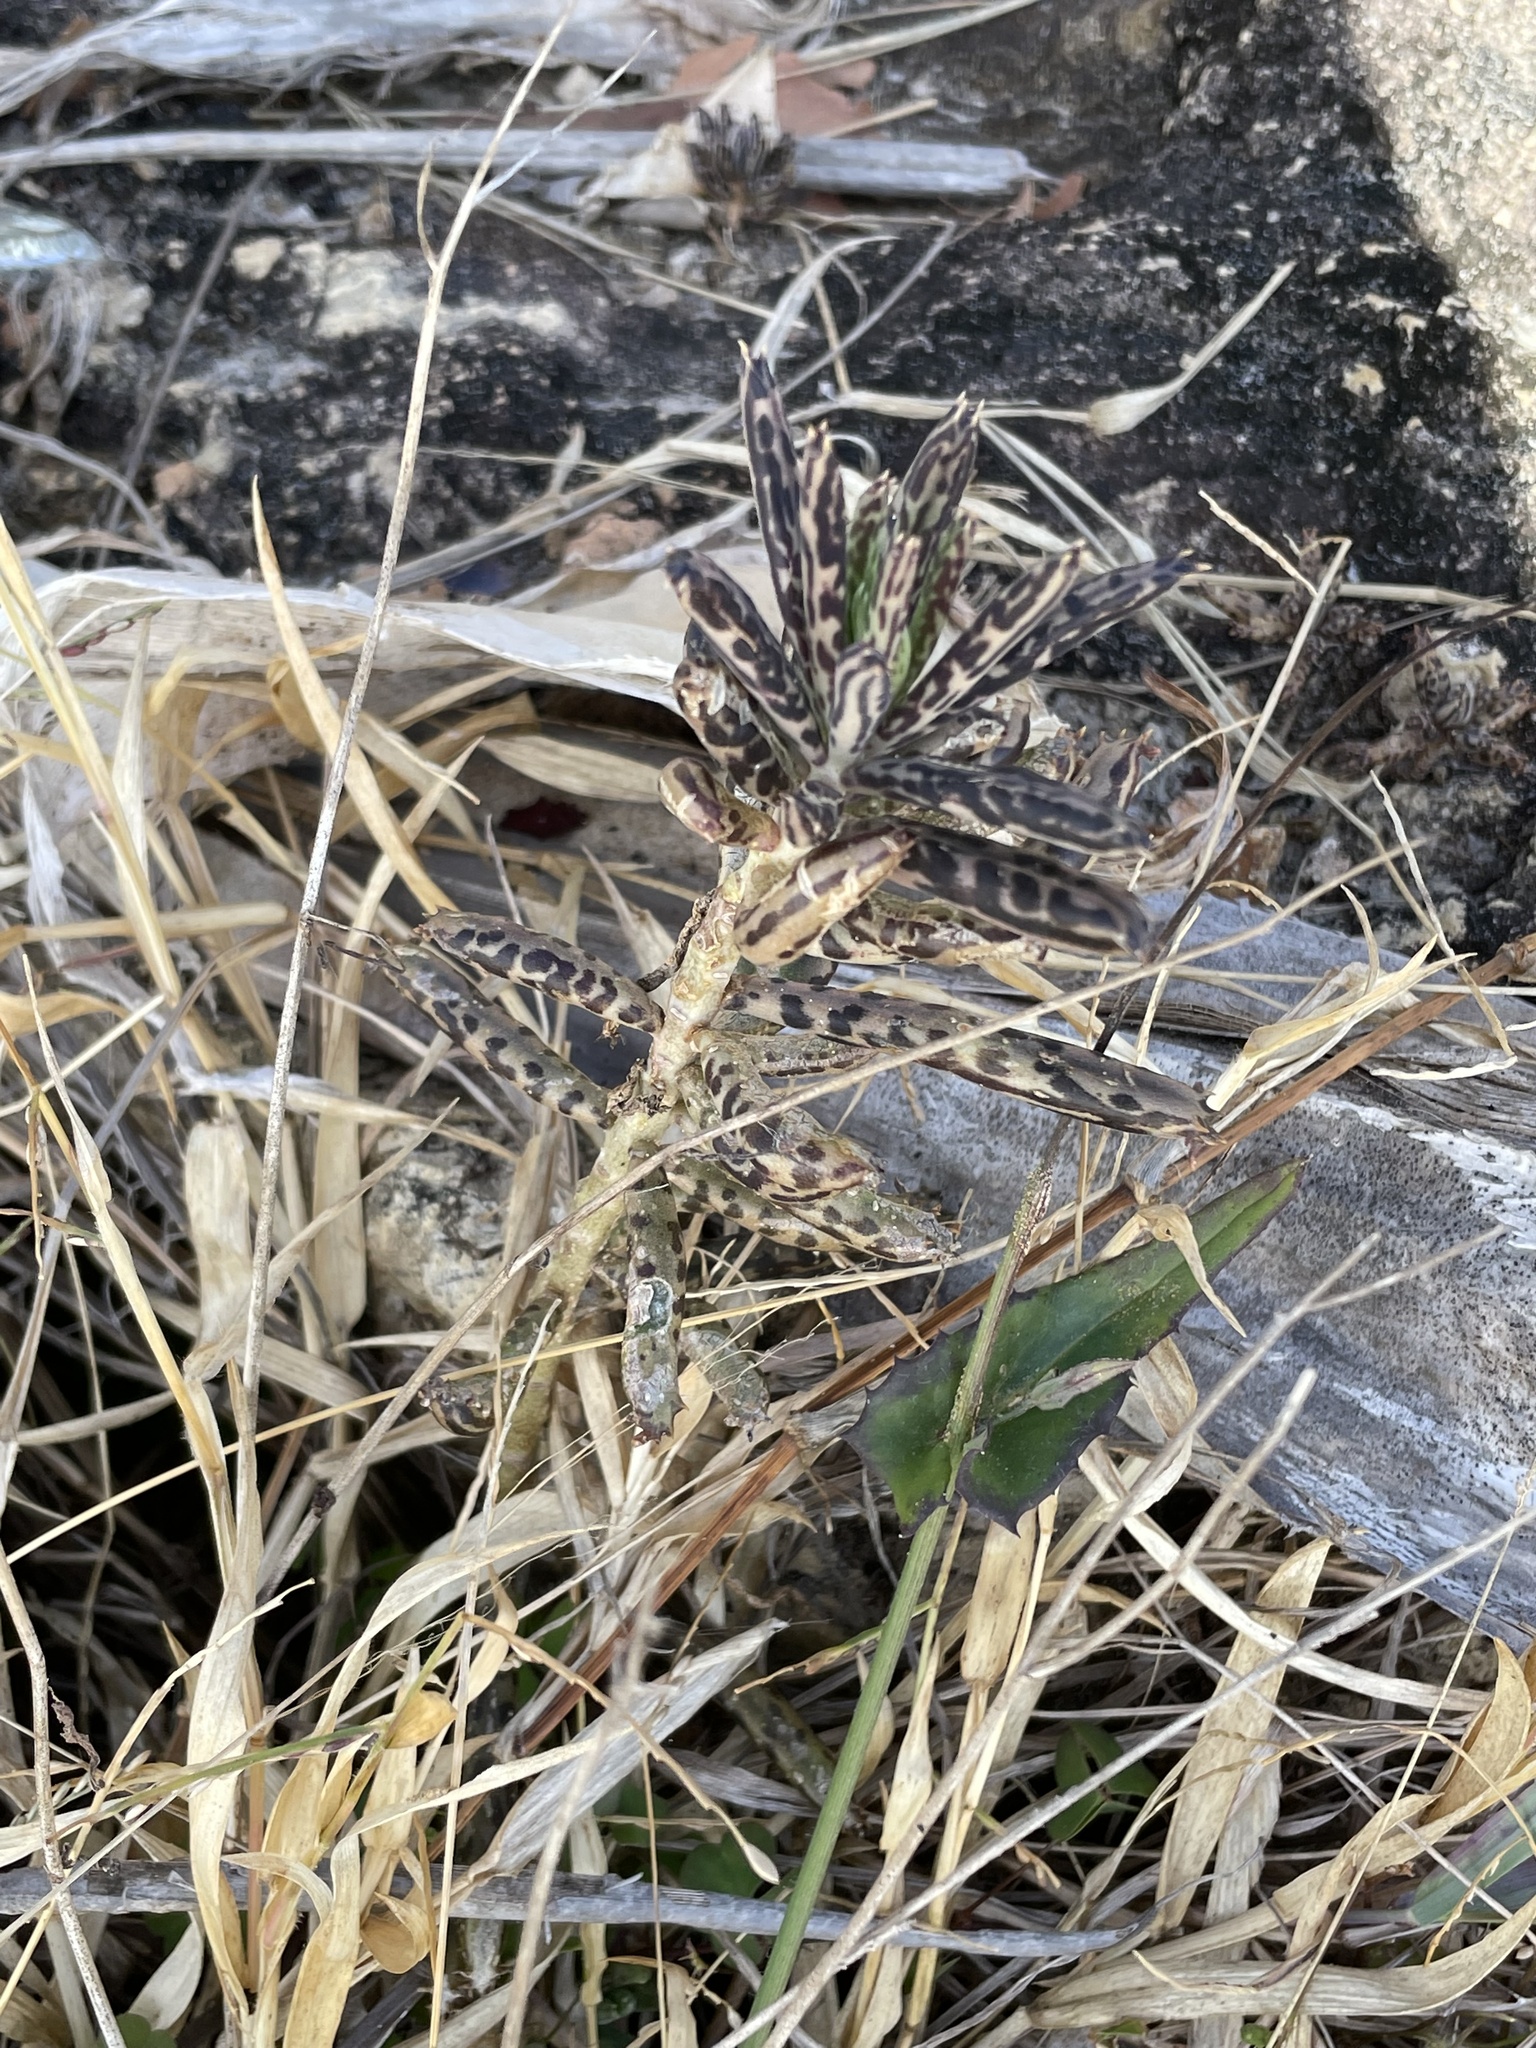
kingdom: Plantae
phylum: Tracheophyta
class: Magnoliopsida
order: Saxifragales
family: Crassulaceae
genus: Kalanchoe
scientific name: Kalanchoe delagoensis
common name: Chandelier plant
